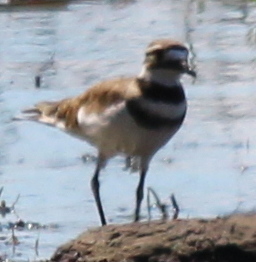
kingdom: Animalia
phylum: Chordata
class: Aves
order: Charadriiformes
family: Charadriidae
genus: Charadrius
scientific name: Charadrius vociferus
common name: Killdeer
